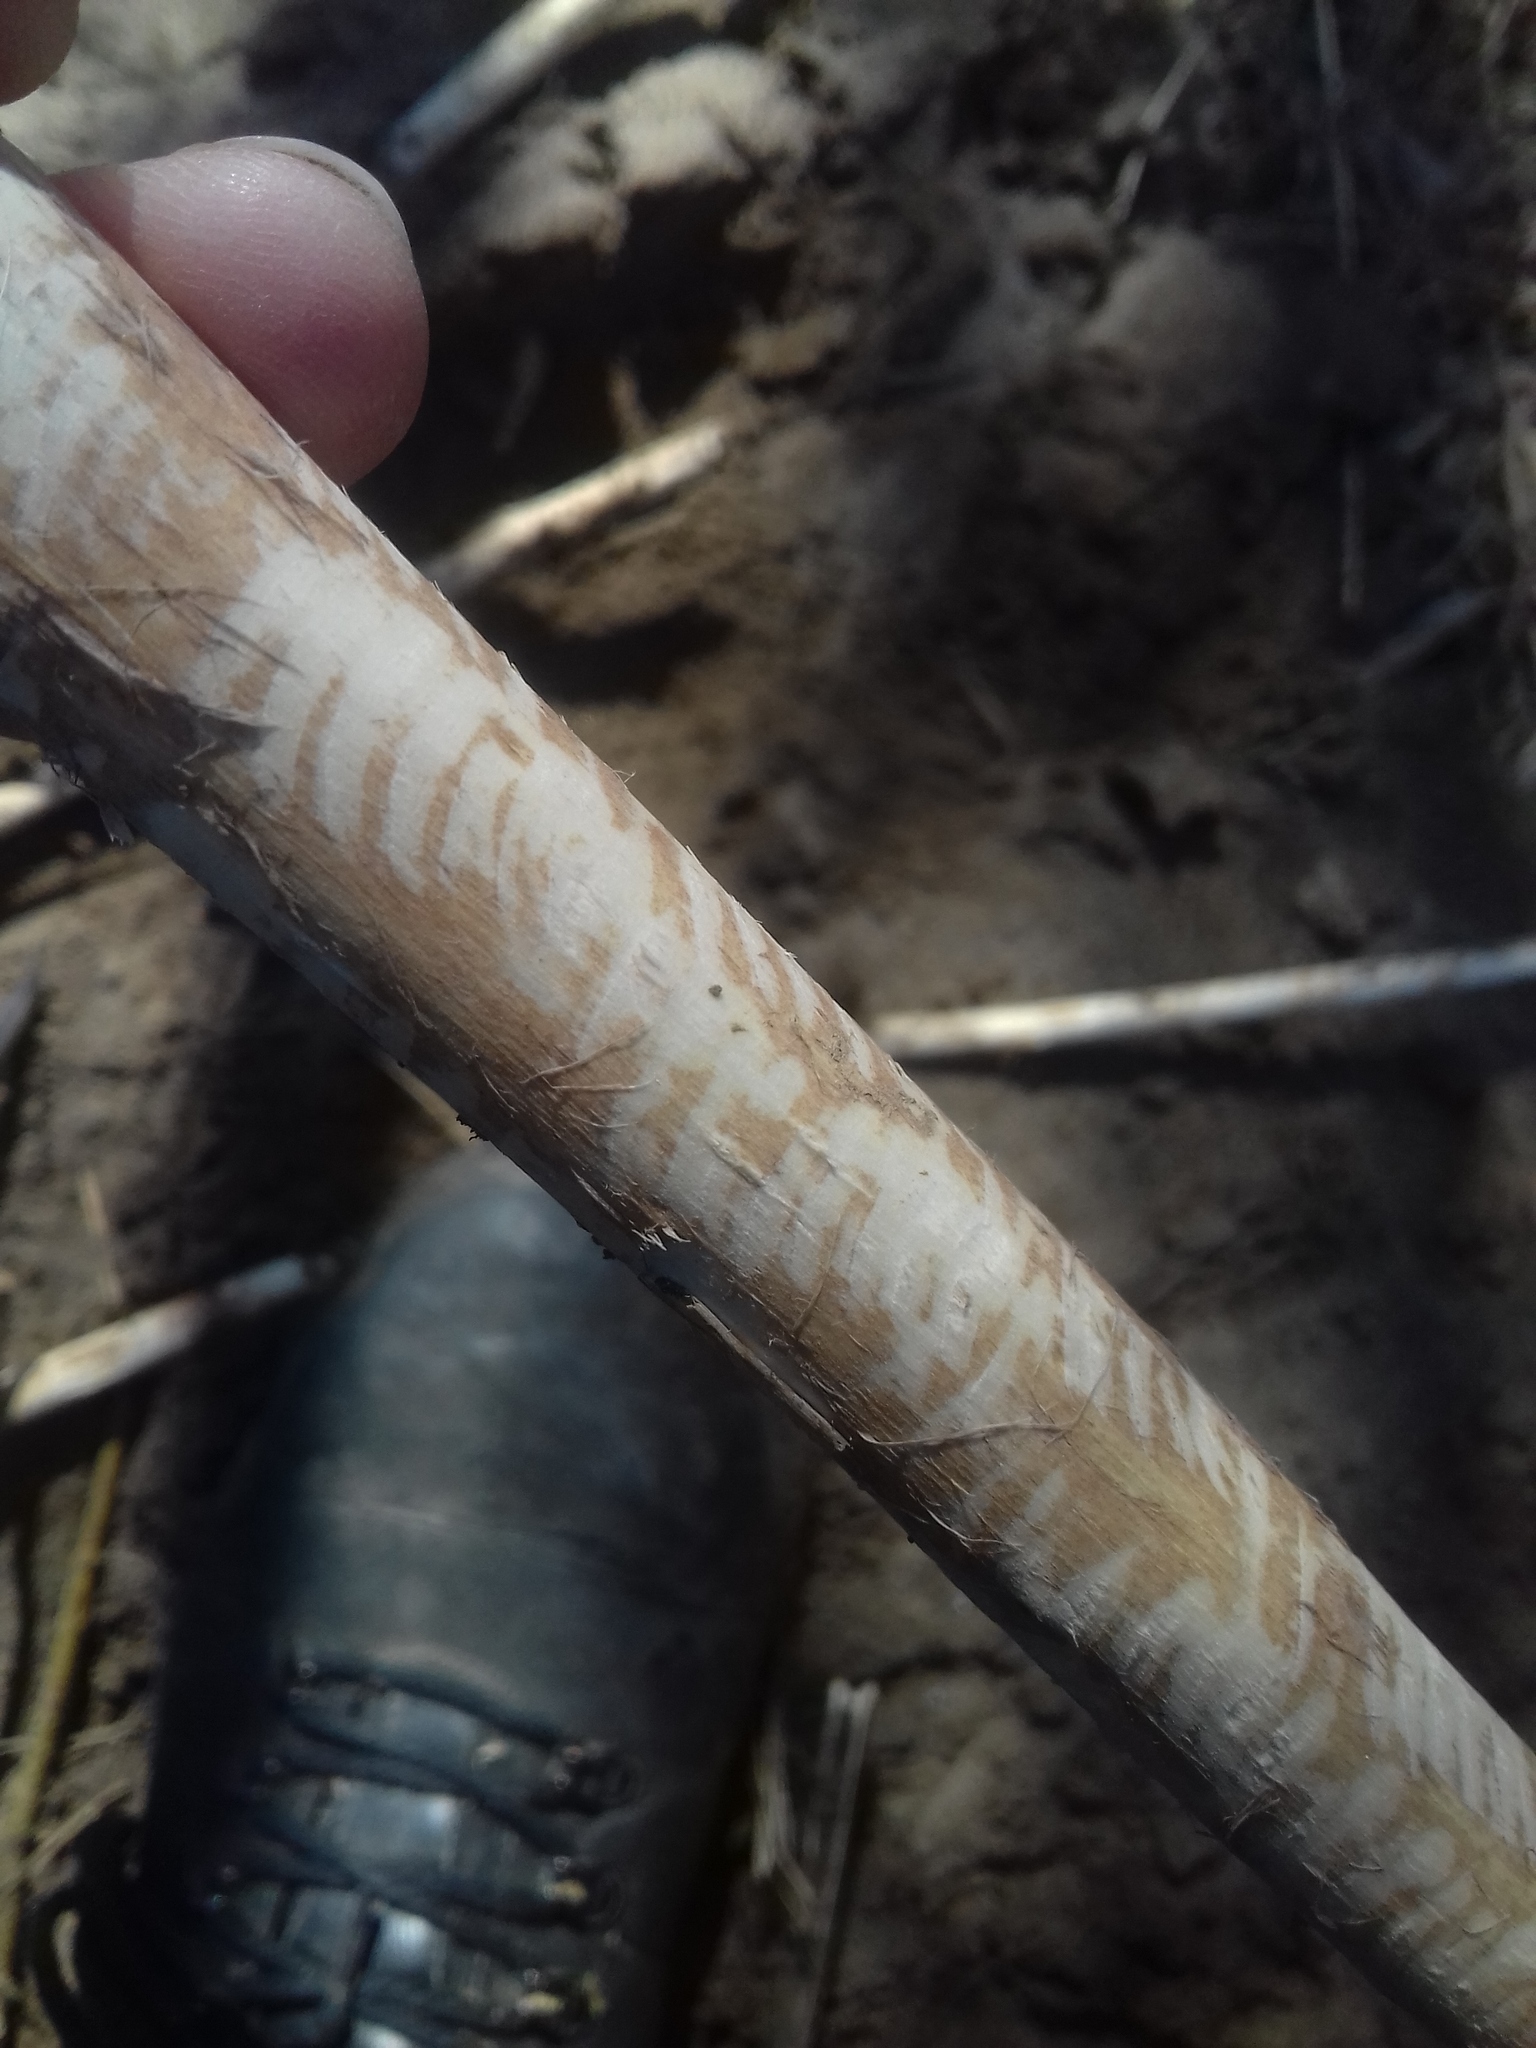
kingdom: Animalia
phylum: Chordata
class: Mammalia
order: Rodentia
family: Cricetidae
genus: Ondatra
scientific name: Ondatra zibethicus
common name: Muskrat
